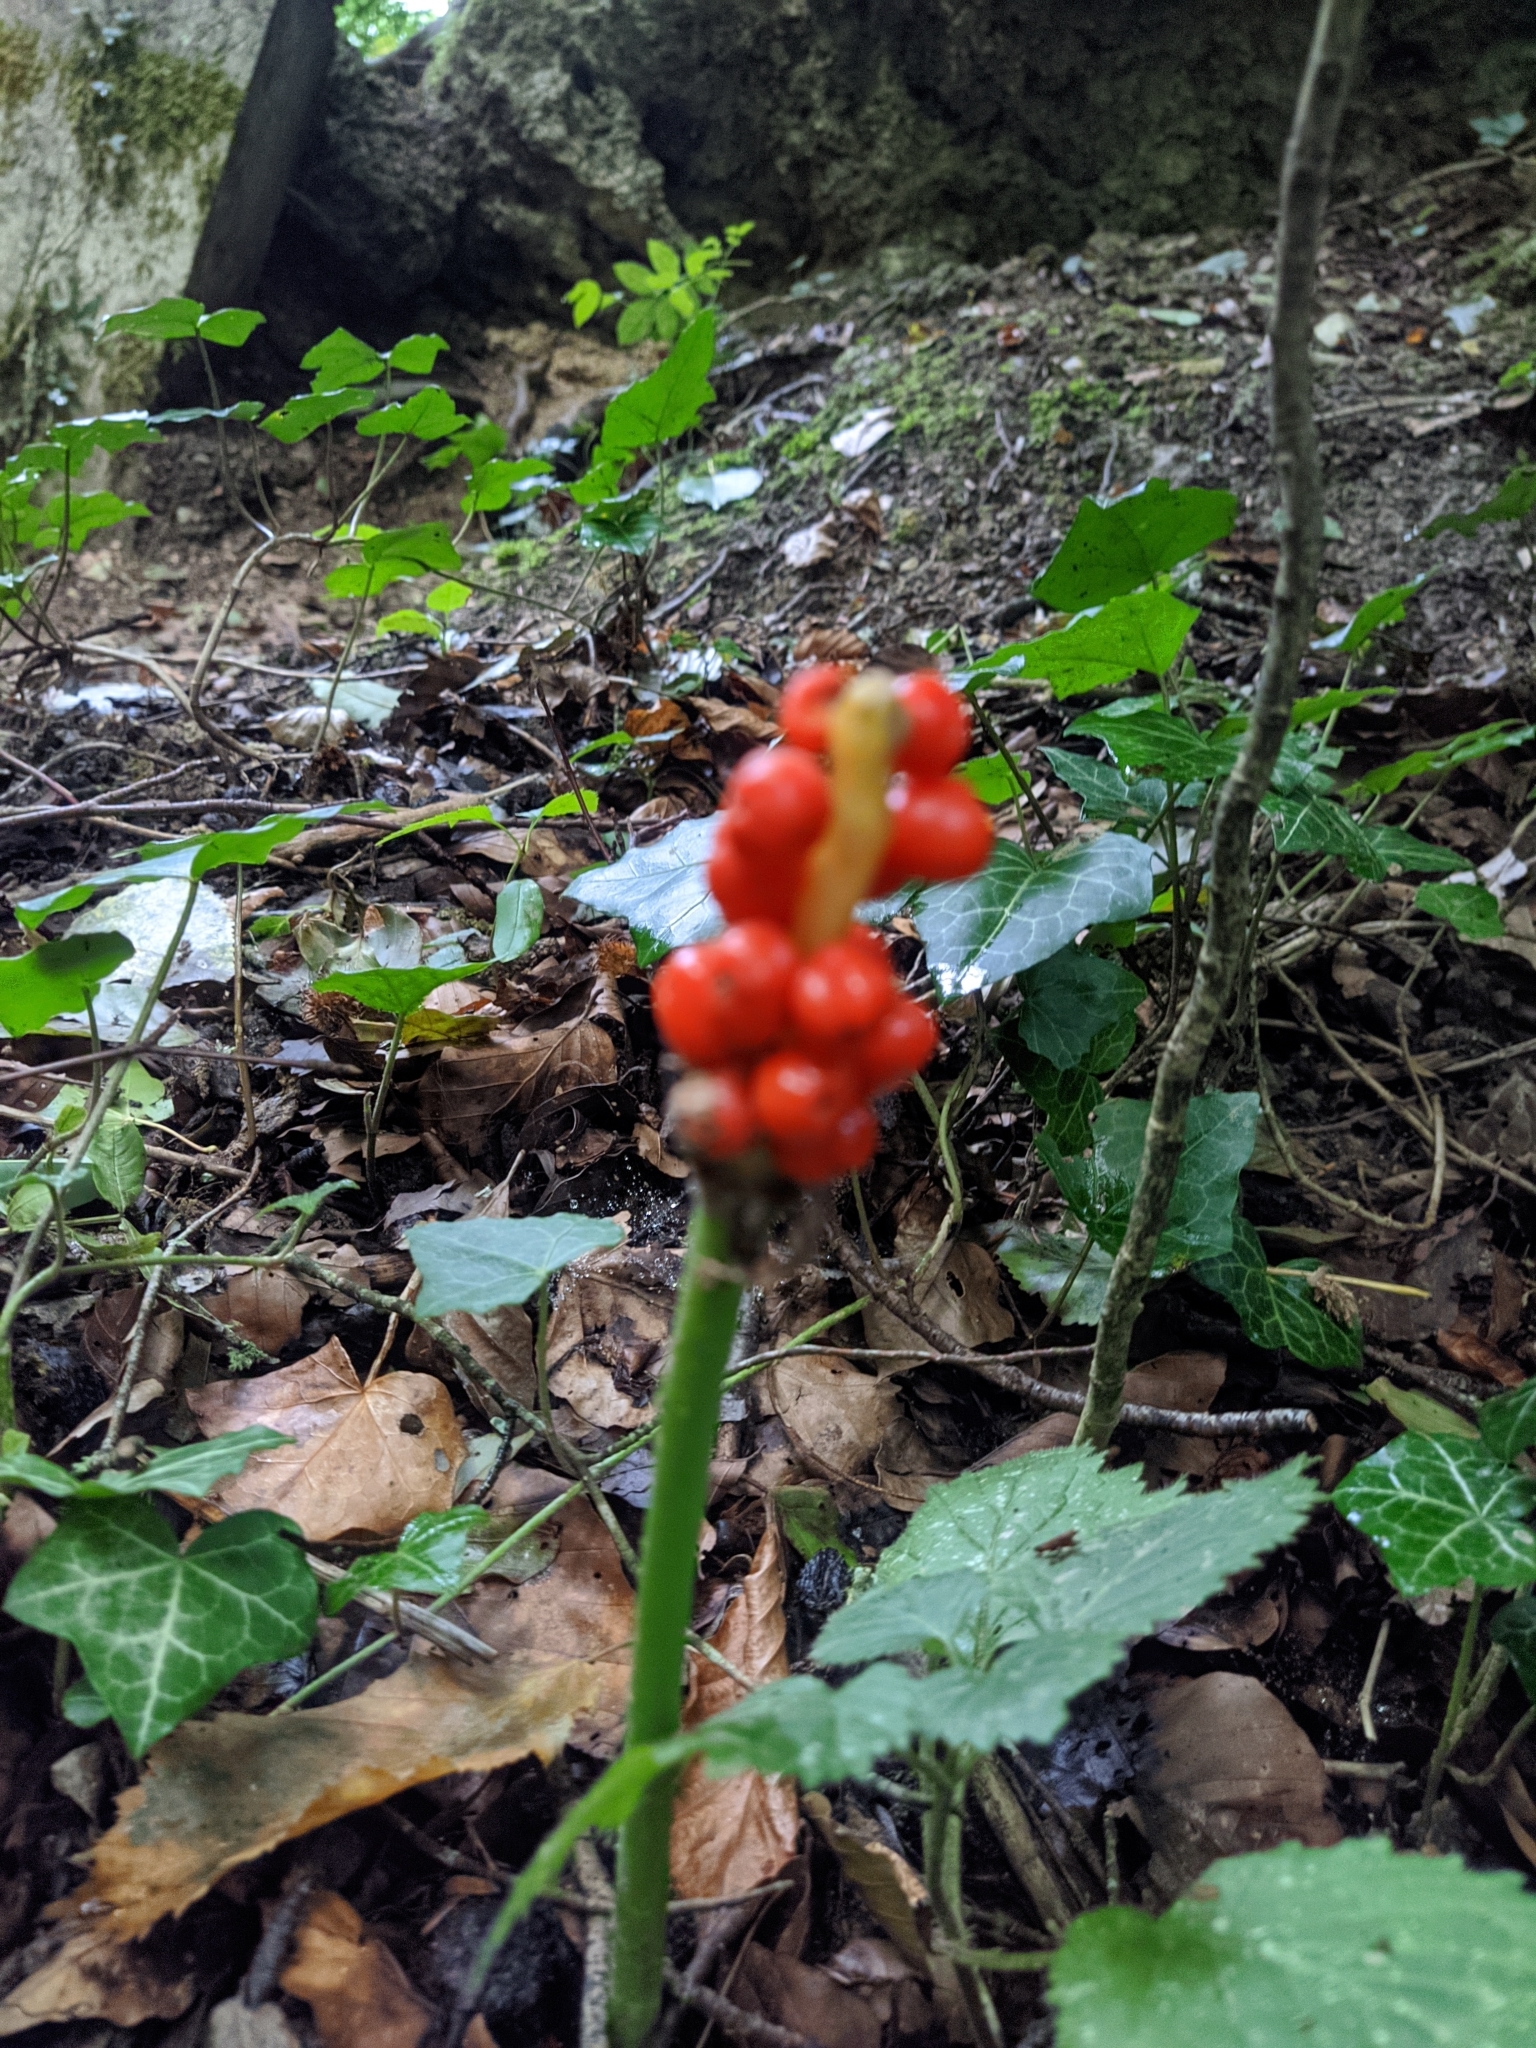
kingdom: Plantae
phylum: Tracheophyta
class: Liliopsida
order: Alismatales
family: Araceae
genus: Arum
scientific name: Arum
